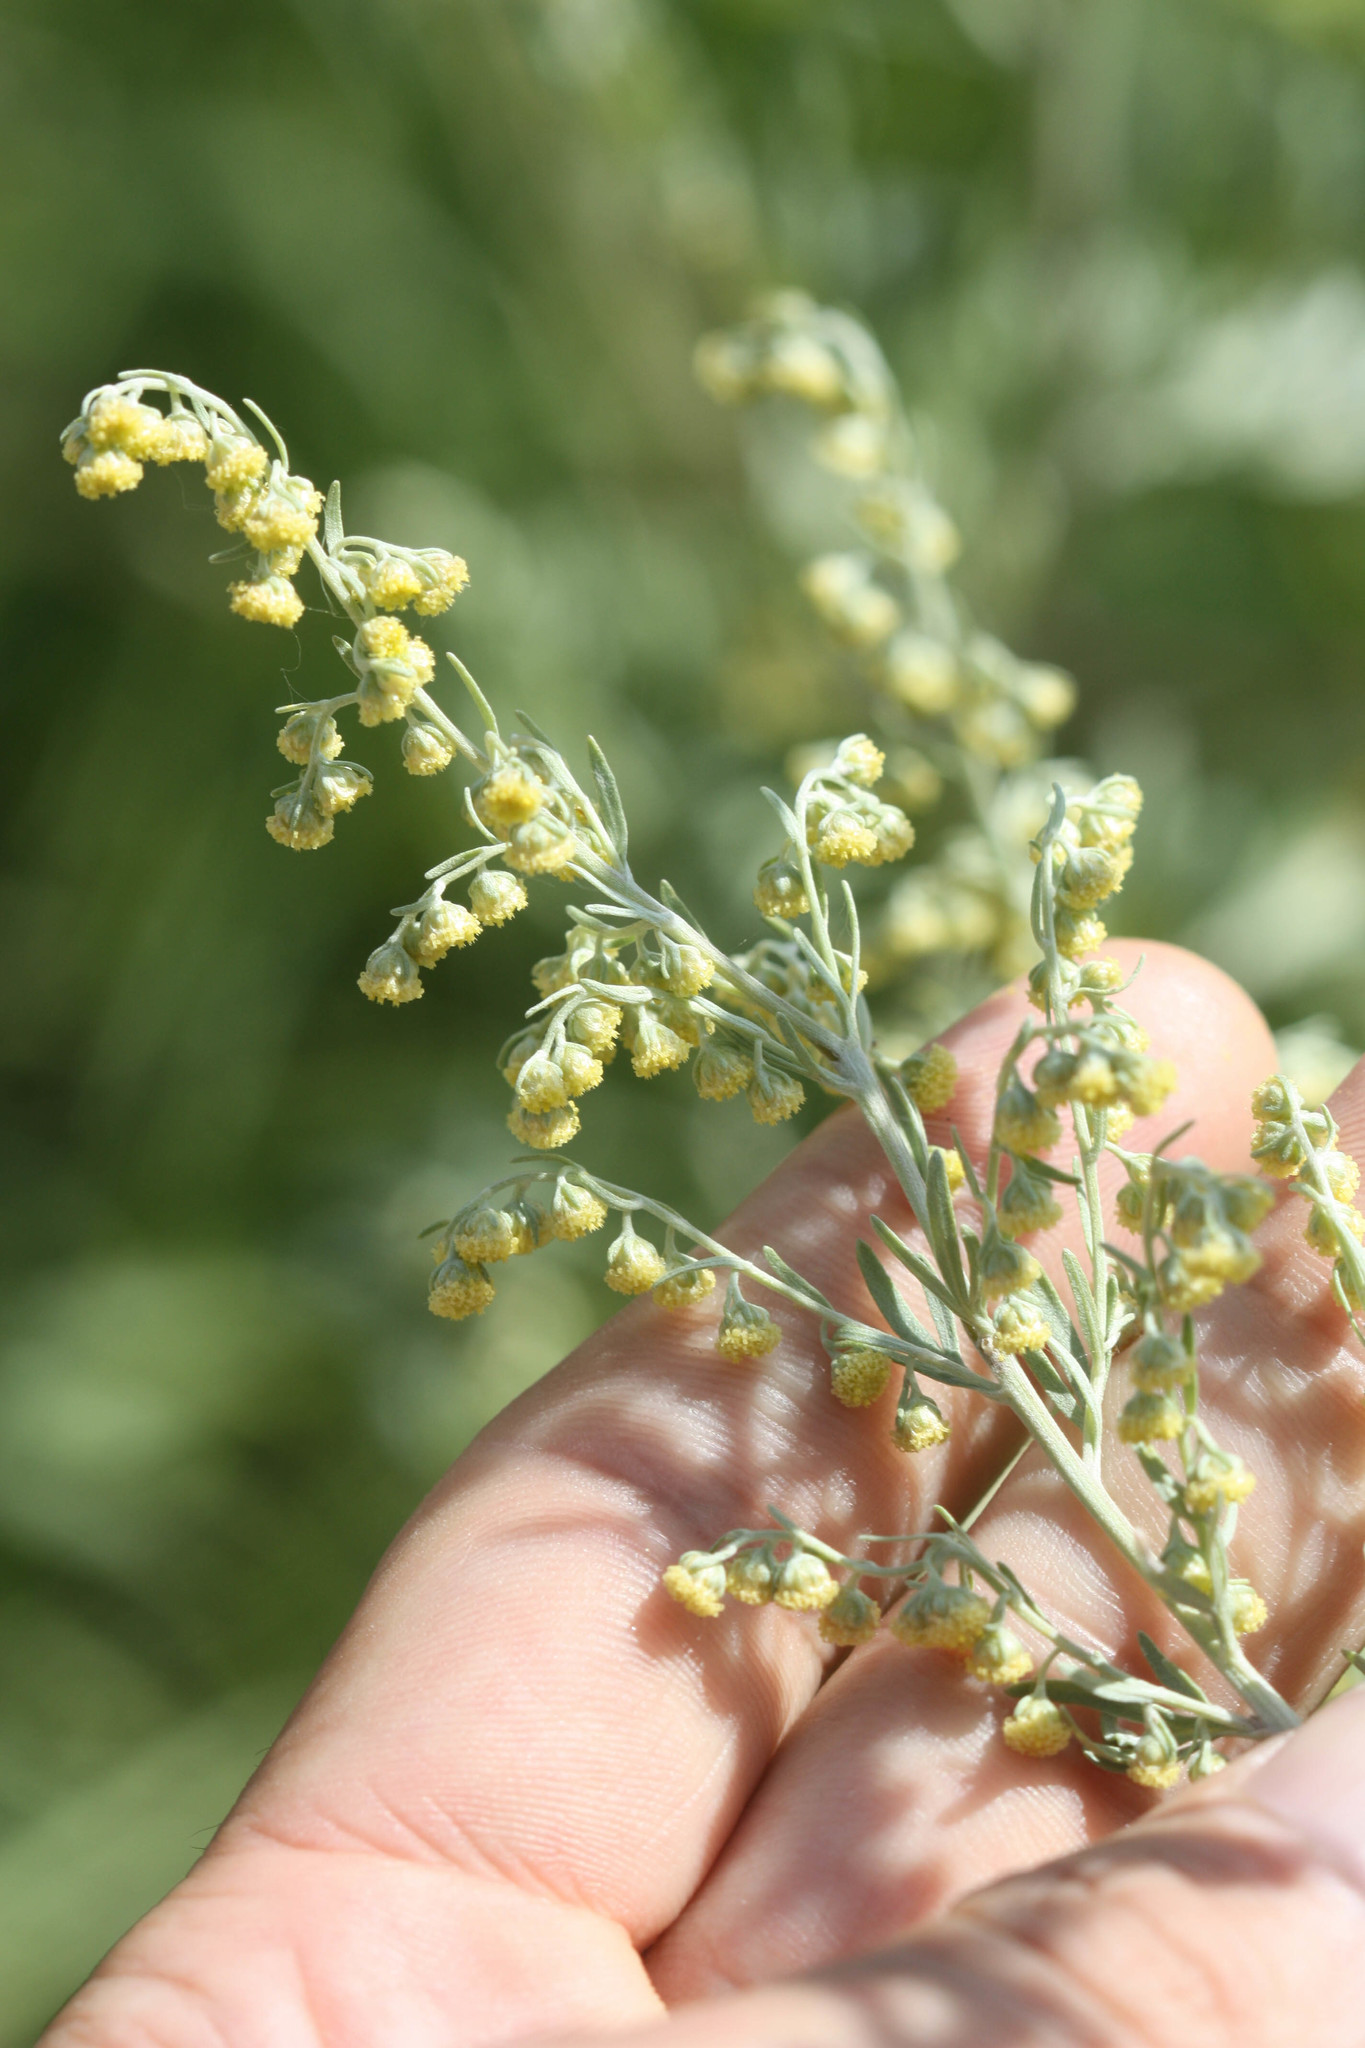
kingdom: Plantae
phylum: Tracheophyta
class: Magnoliopsida
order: Asterales
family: Asteraceae
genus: Artemisia
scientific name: Artemisia absinthium
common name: Wormwood
